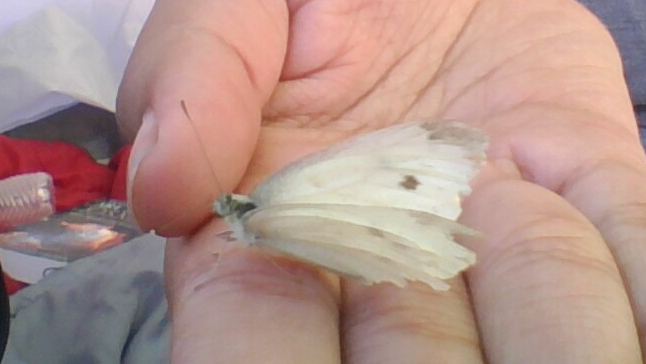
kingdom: Animalia
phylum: Arthropoda
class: Insecta
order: Lepidoptera
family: Pieridae
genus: Pieris
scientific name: Pieris rapae
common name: Small white
